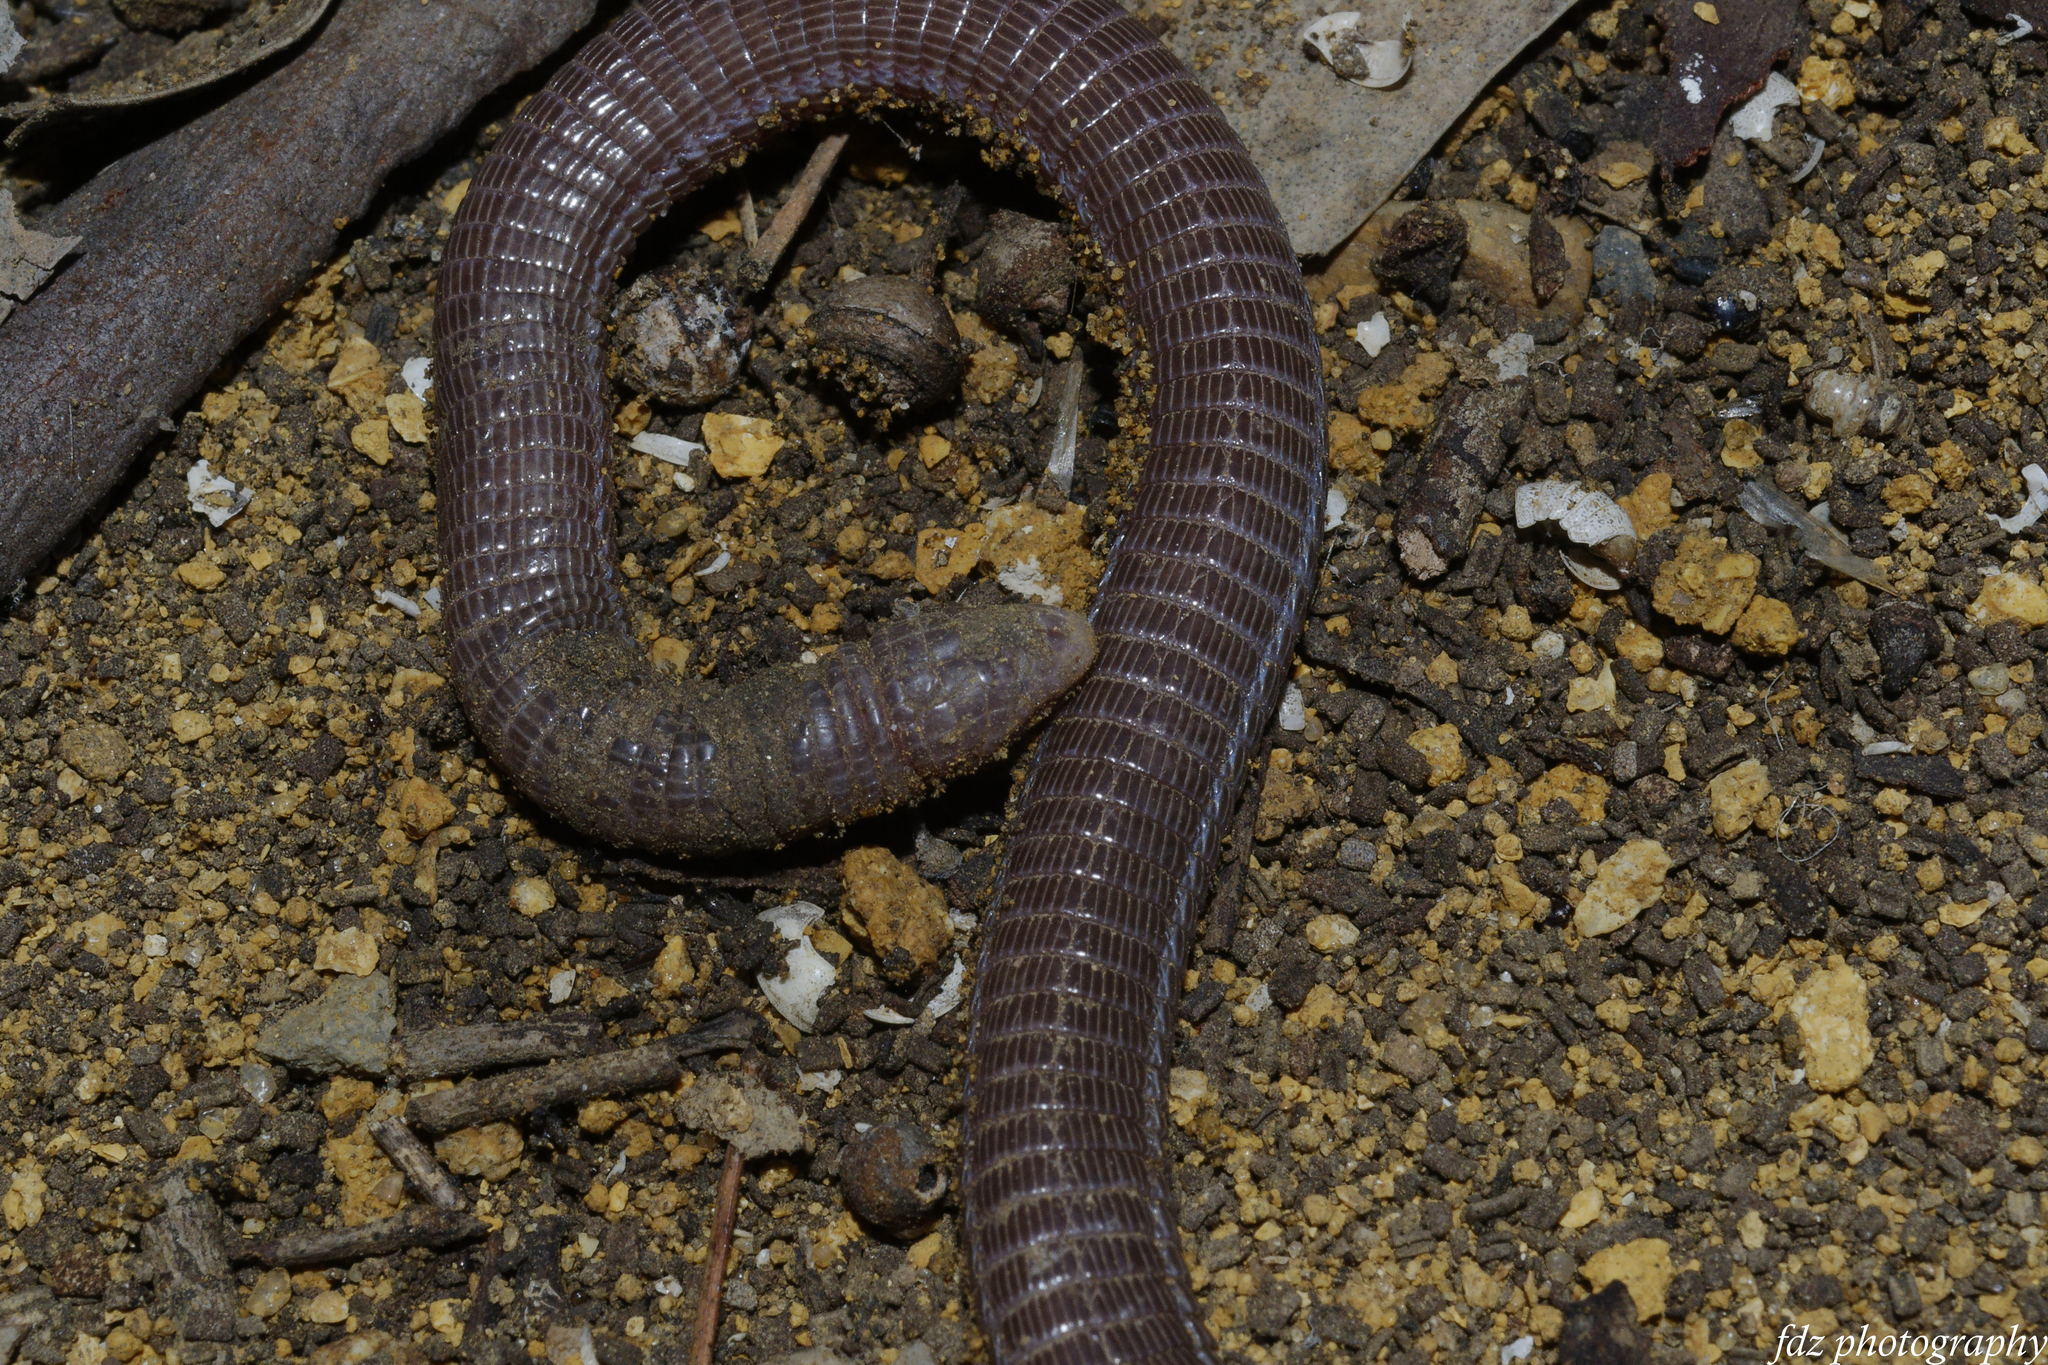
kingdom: Animalia
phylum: Chordata
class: Squamata
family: Blanidae
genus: Blanus
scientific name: Blanus cinereus
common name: Mediterranean worm lizard
